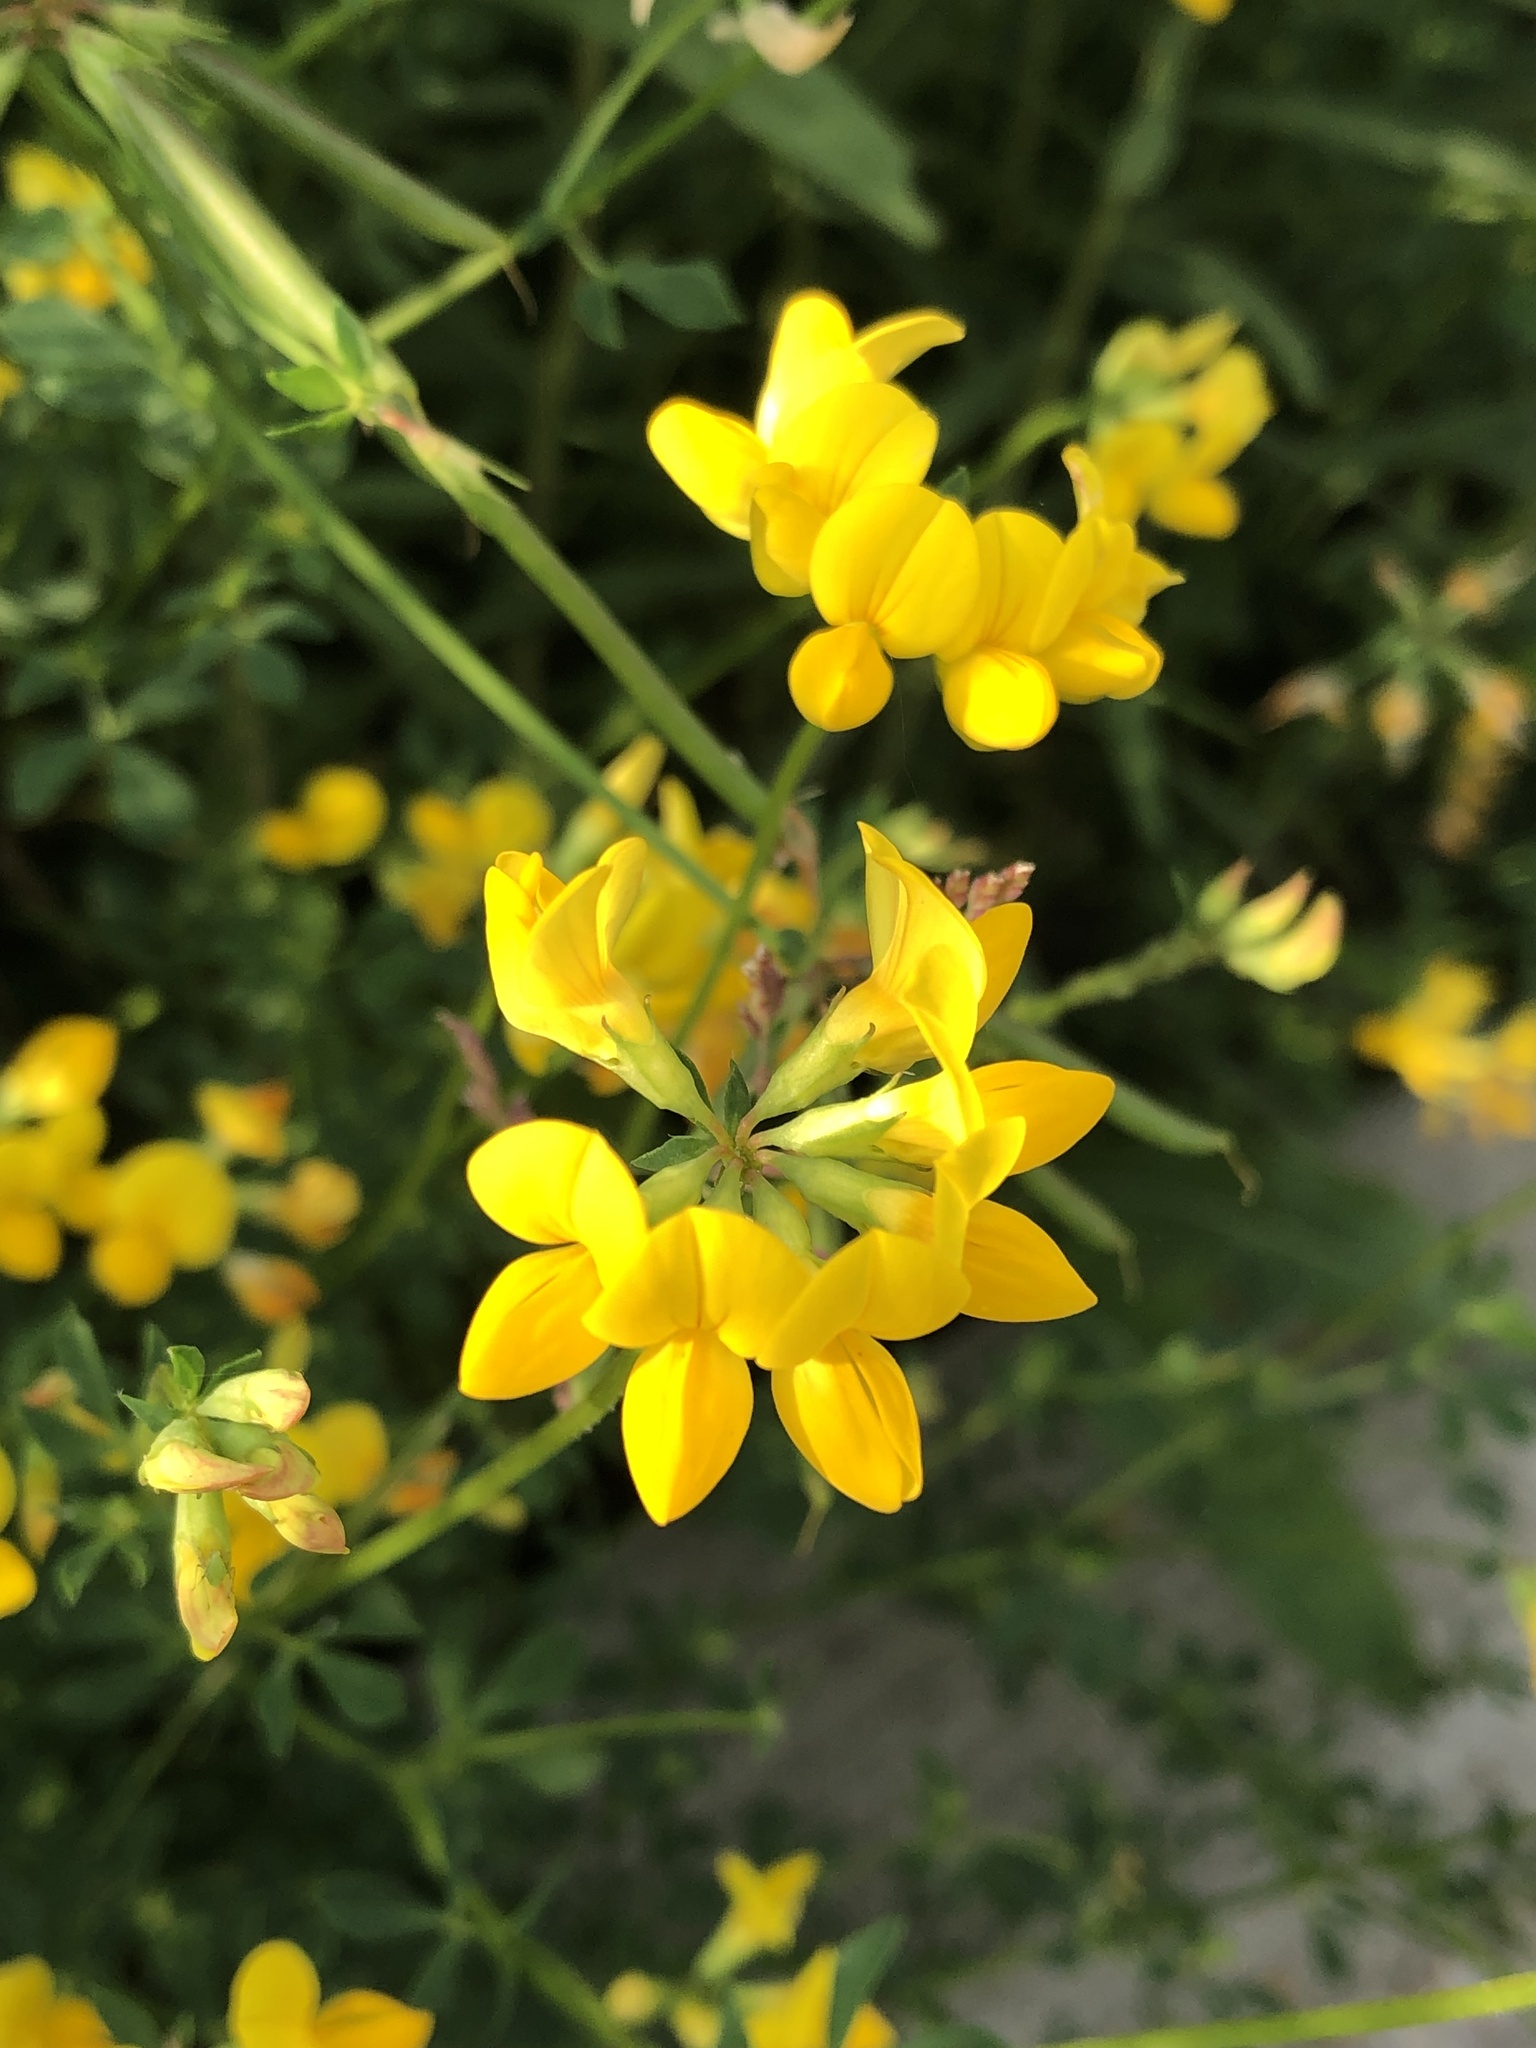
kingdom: Plantae
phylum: Tracheophyta
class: Magnoliopsida
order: Fabales
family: Fabaceae
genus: Lotus
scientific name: Lotus corniculatus
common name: Common bird's-foot-trefoil
